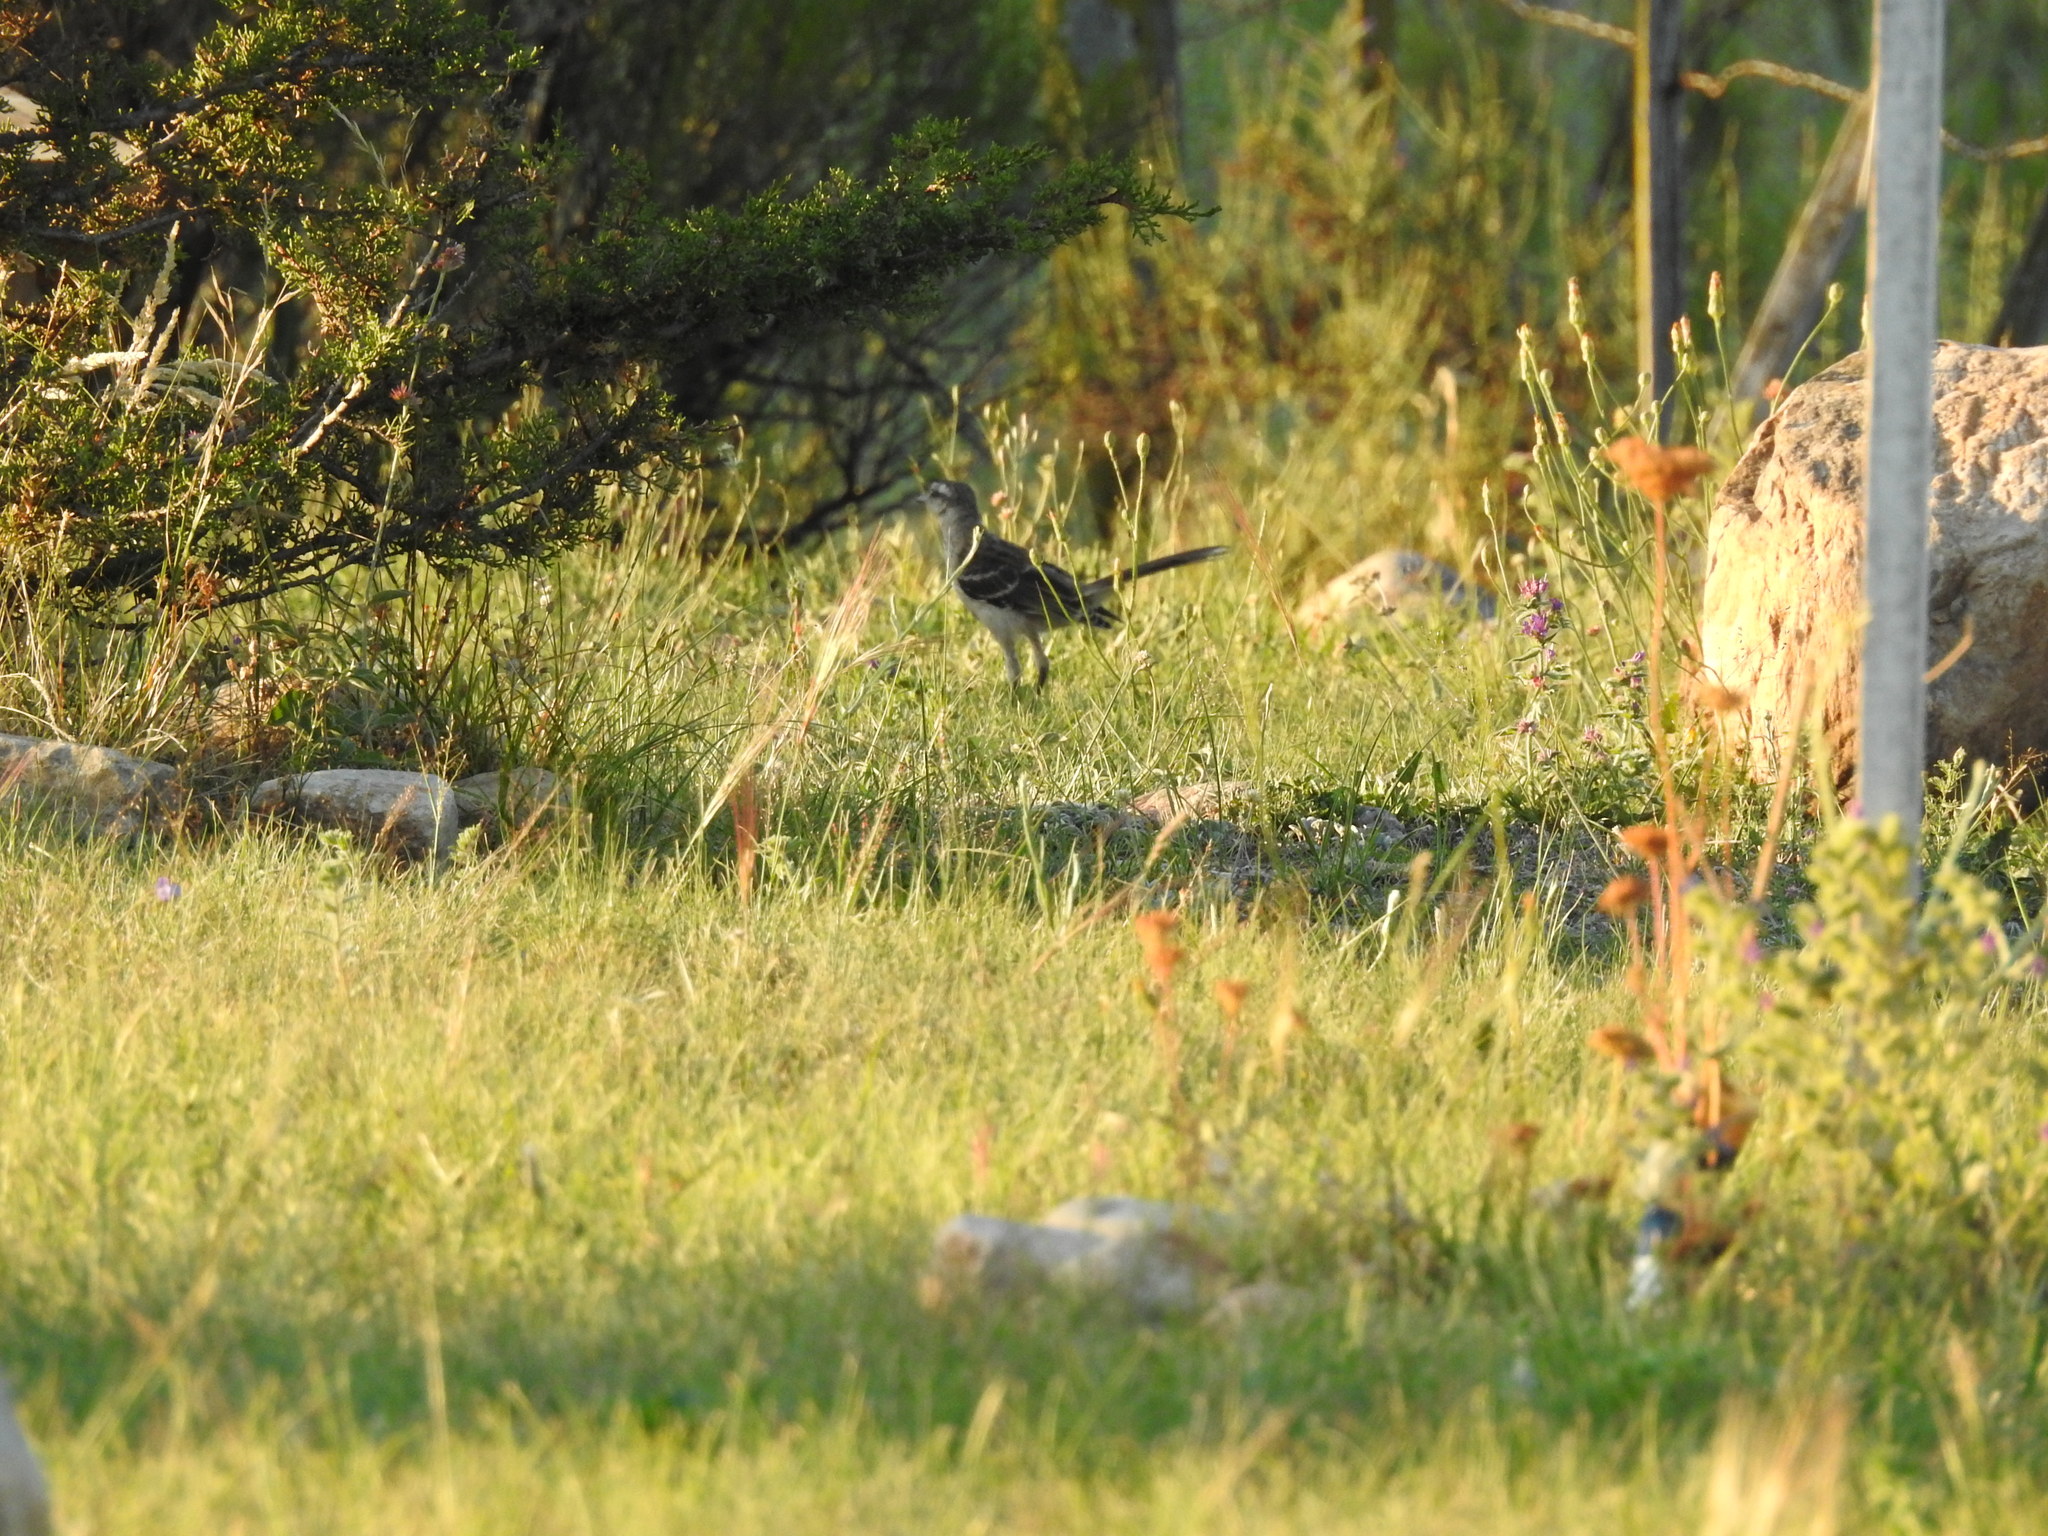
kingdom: Animalia
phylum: Chordata
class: Aves
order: Passeriformes
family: Mimidae
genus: Mimus
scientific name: Mimus saturninus
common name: Chalk-browed mockingbird
